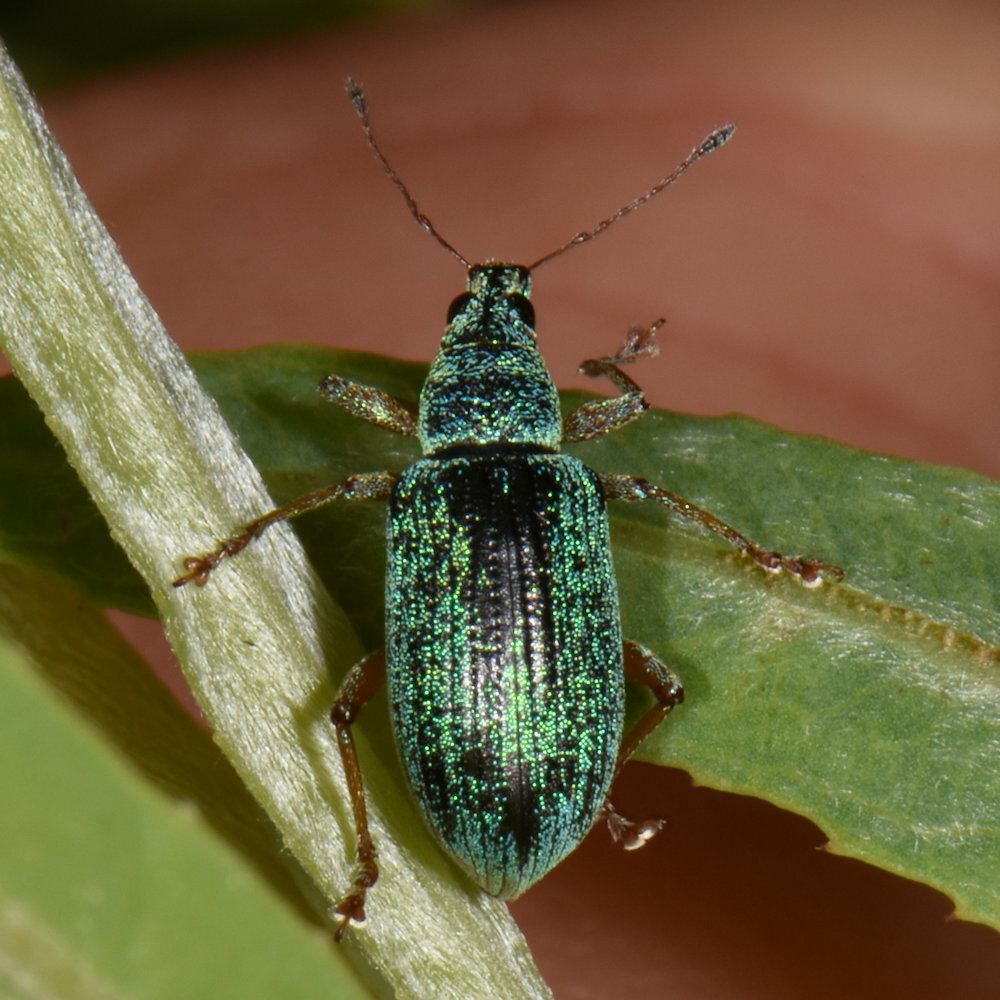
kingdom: Animalia
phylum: Arthropoda
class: Insecta
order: Coleoptera
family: Curculionidae
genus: Polydrusus
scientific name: Polydrusus formosus
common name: Weevil
